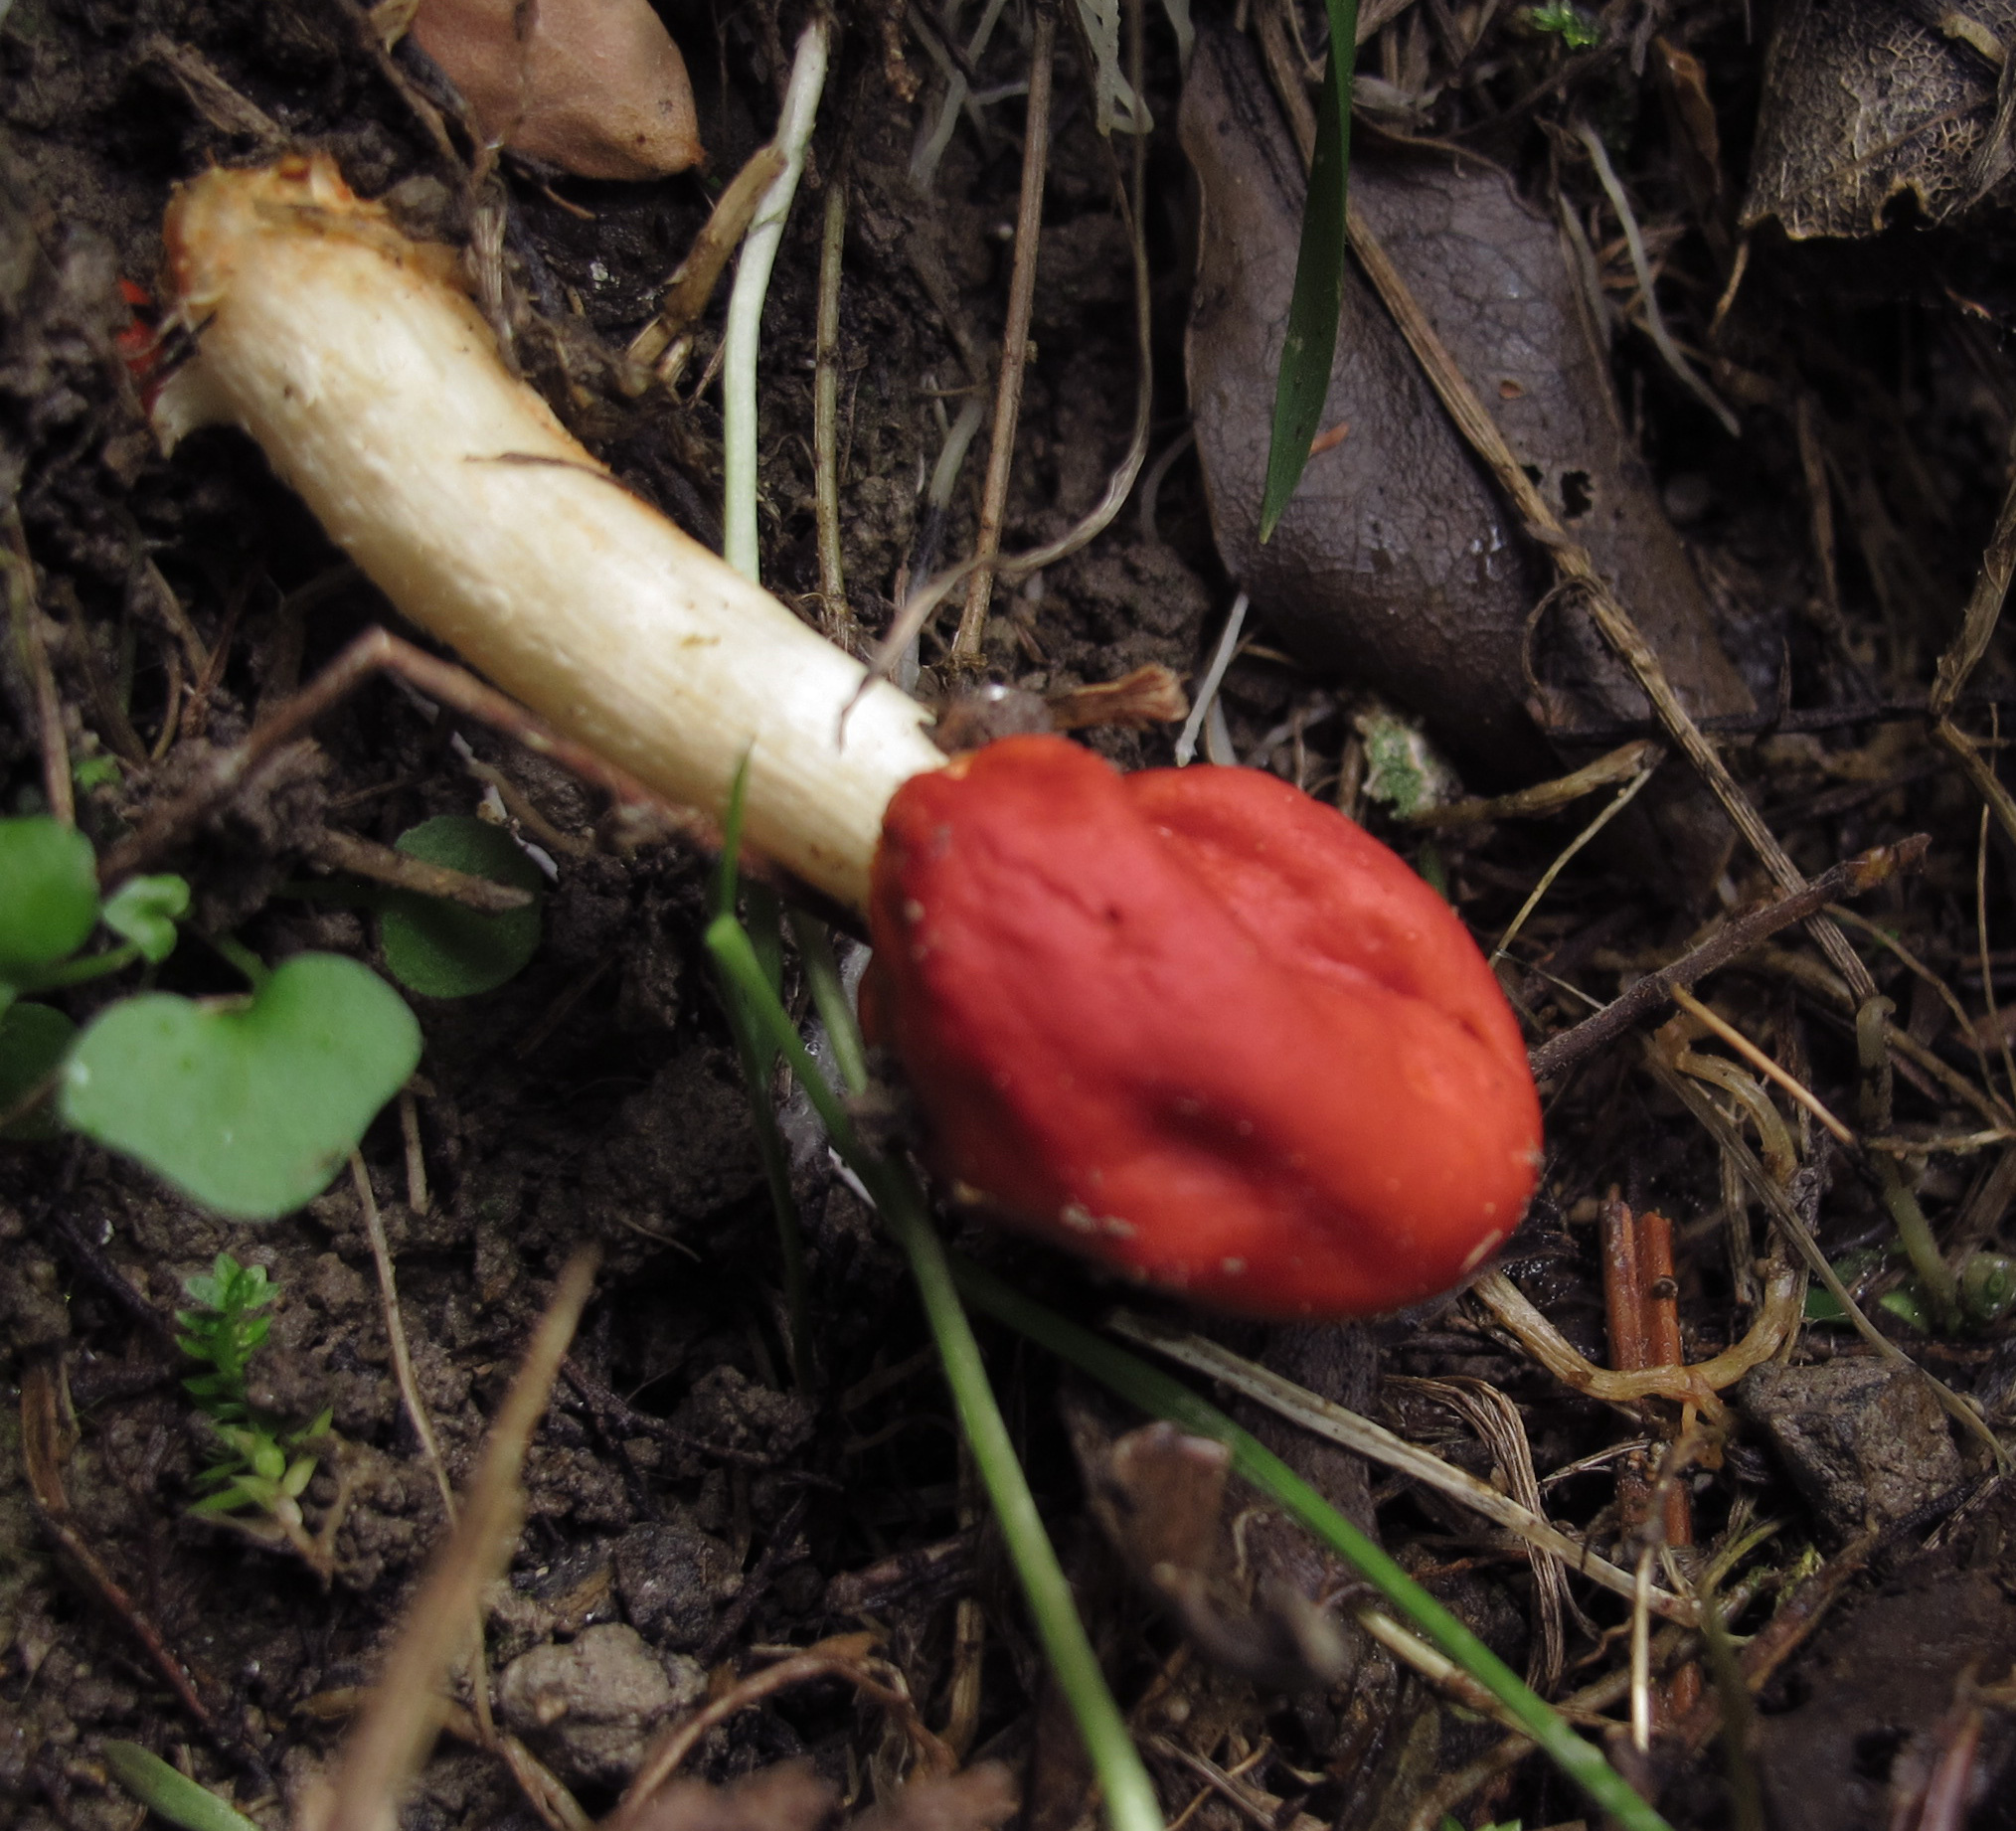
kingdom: Fungi
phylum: Basidiomycota
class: Agaricomycetes
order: Agaricales
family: Strophariaceae
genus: Leratiomyces
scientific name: Leratiomyces erythrocephalus
